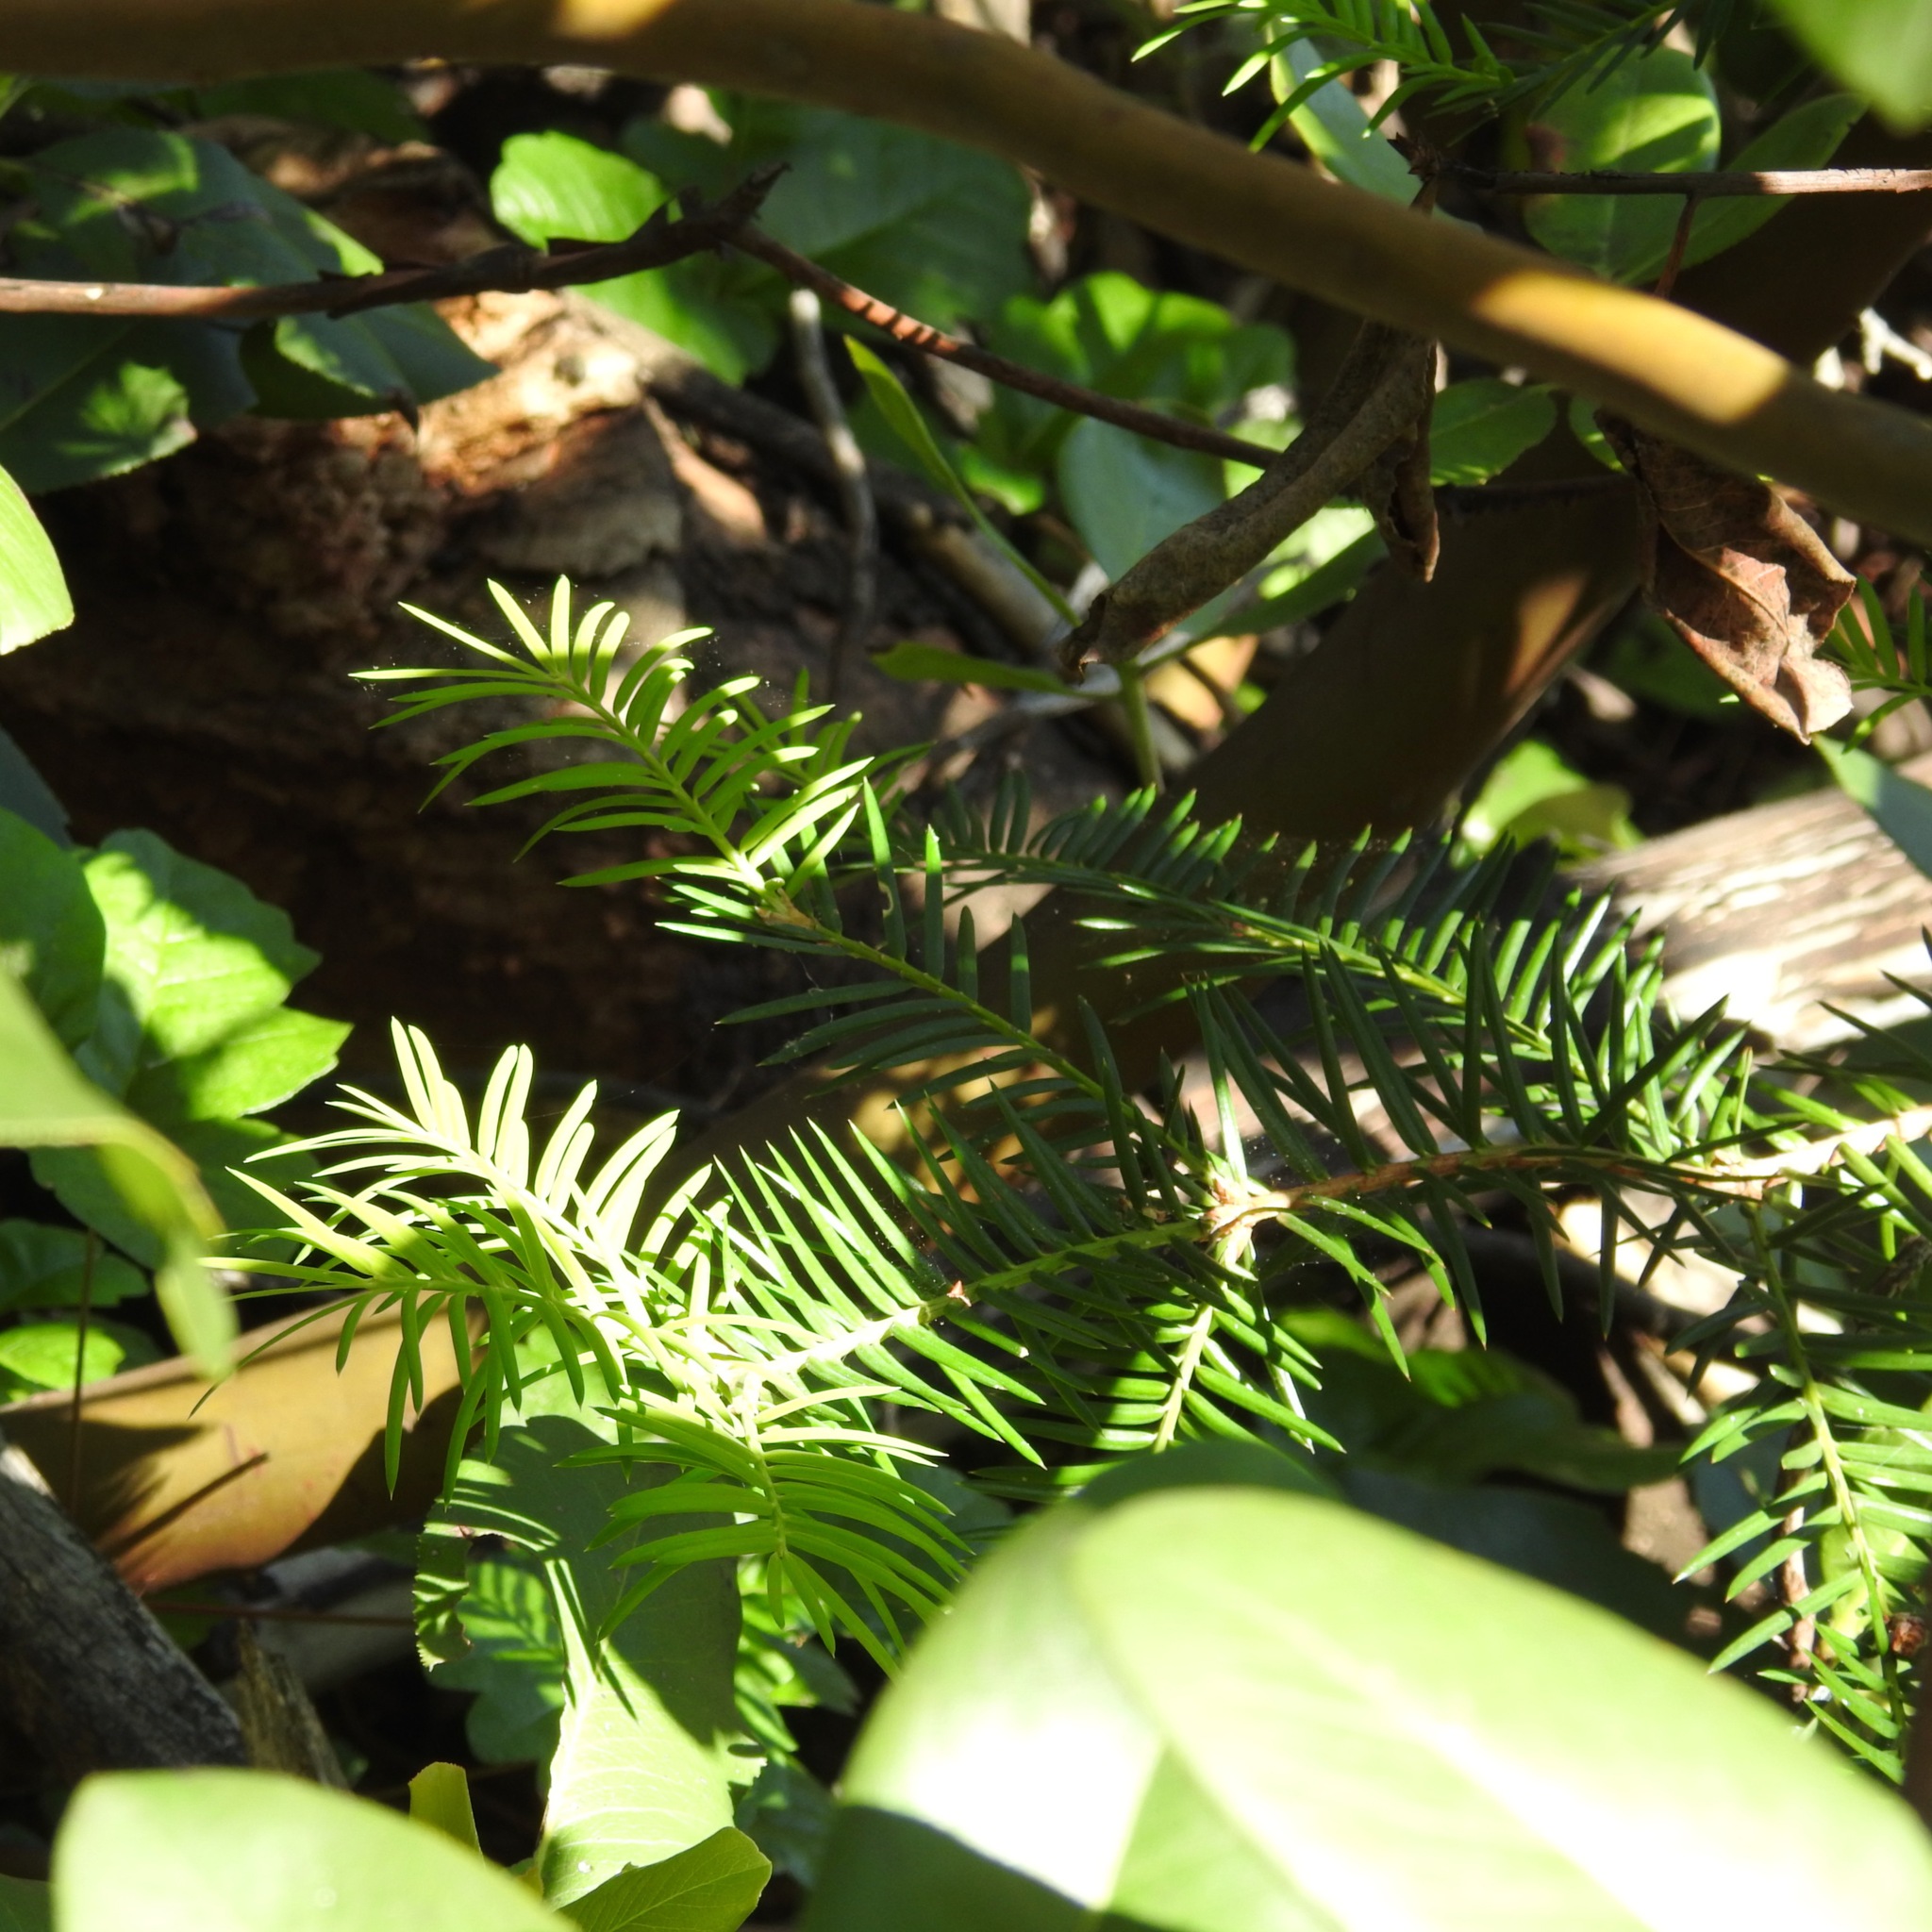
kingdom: Plantae
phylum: Tracheophyta
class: Pinopsida
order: Pinales
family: Taxaceae
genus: Torreya
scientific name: Torreya californica
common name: California torreya
